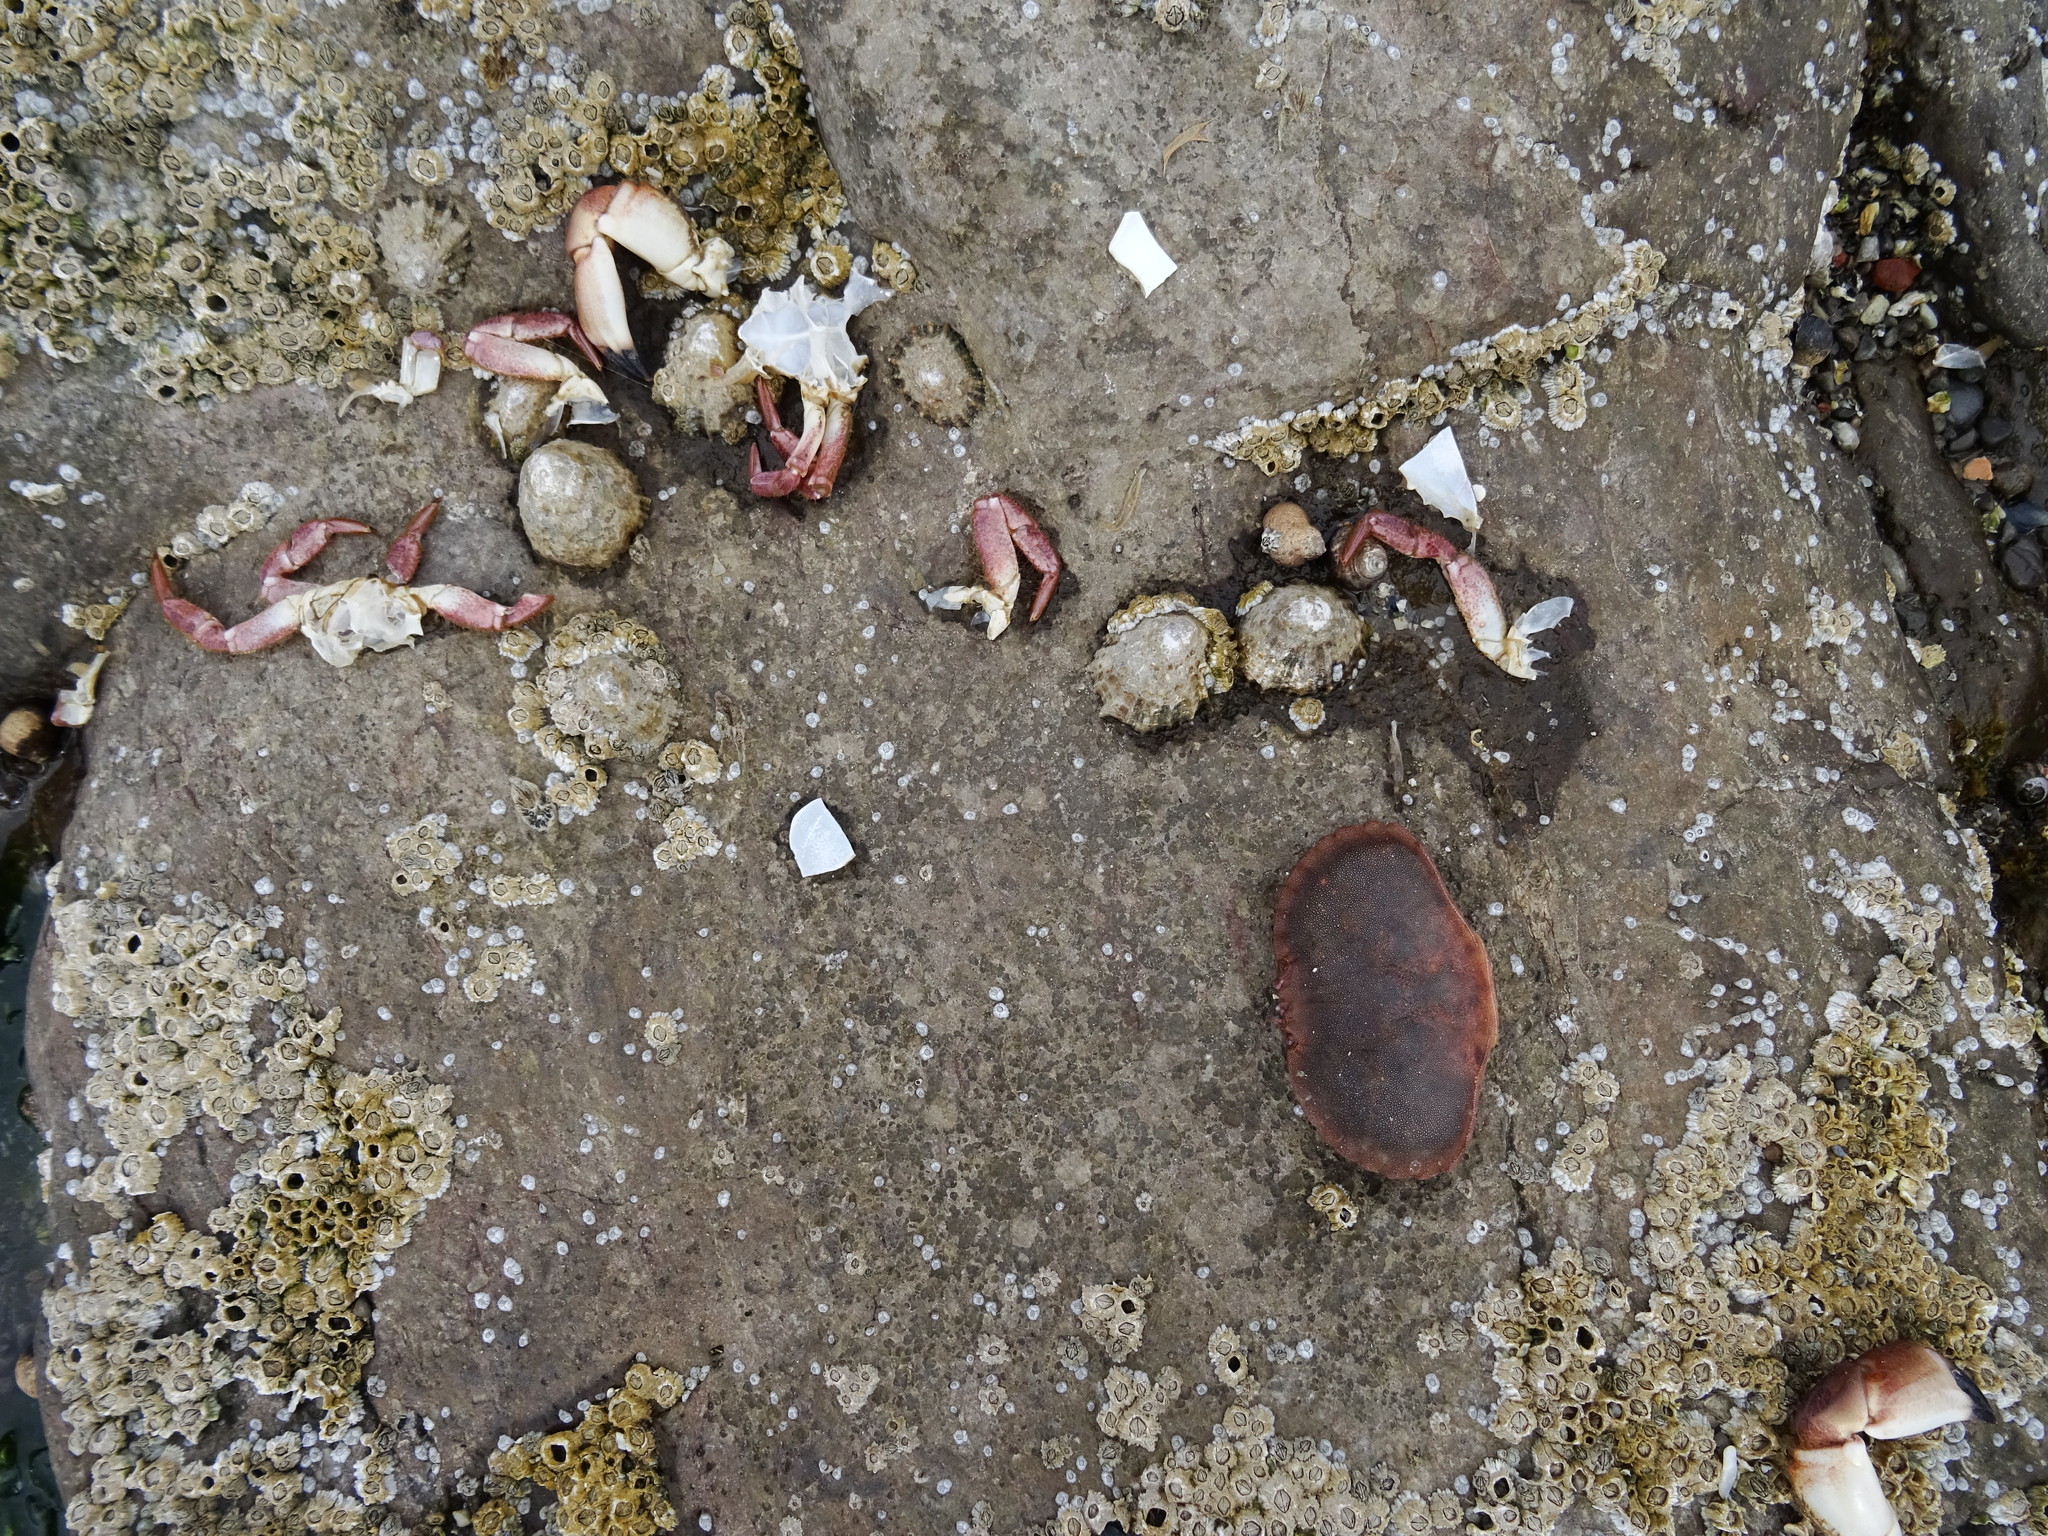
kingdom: Animalia
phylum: Arthropoda
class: Malacostraca
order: Decapoda
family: Cancridae
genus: Cancer
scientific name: Cancer pagurus
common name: Edible crab
